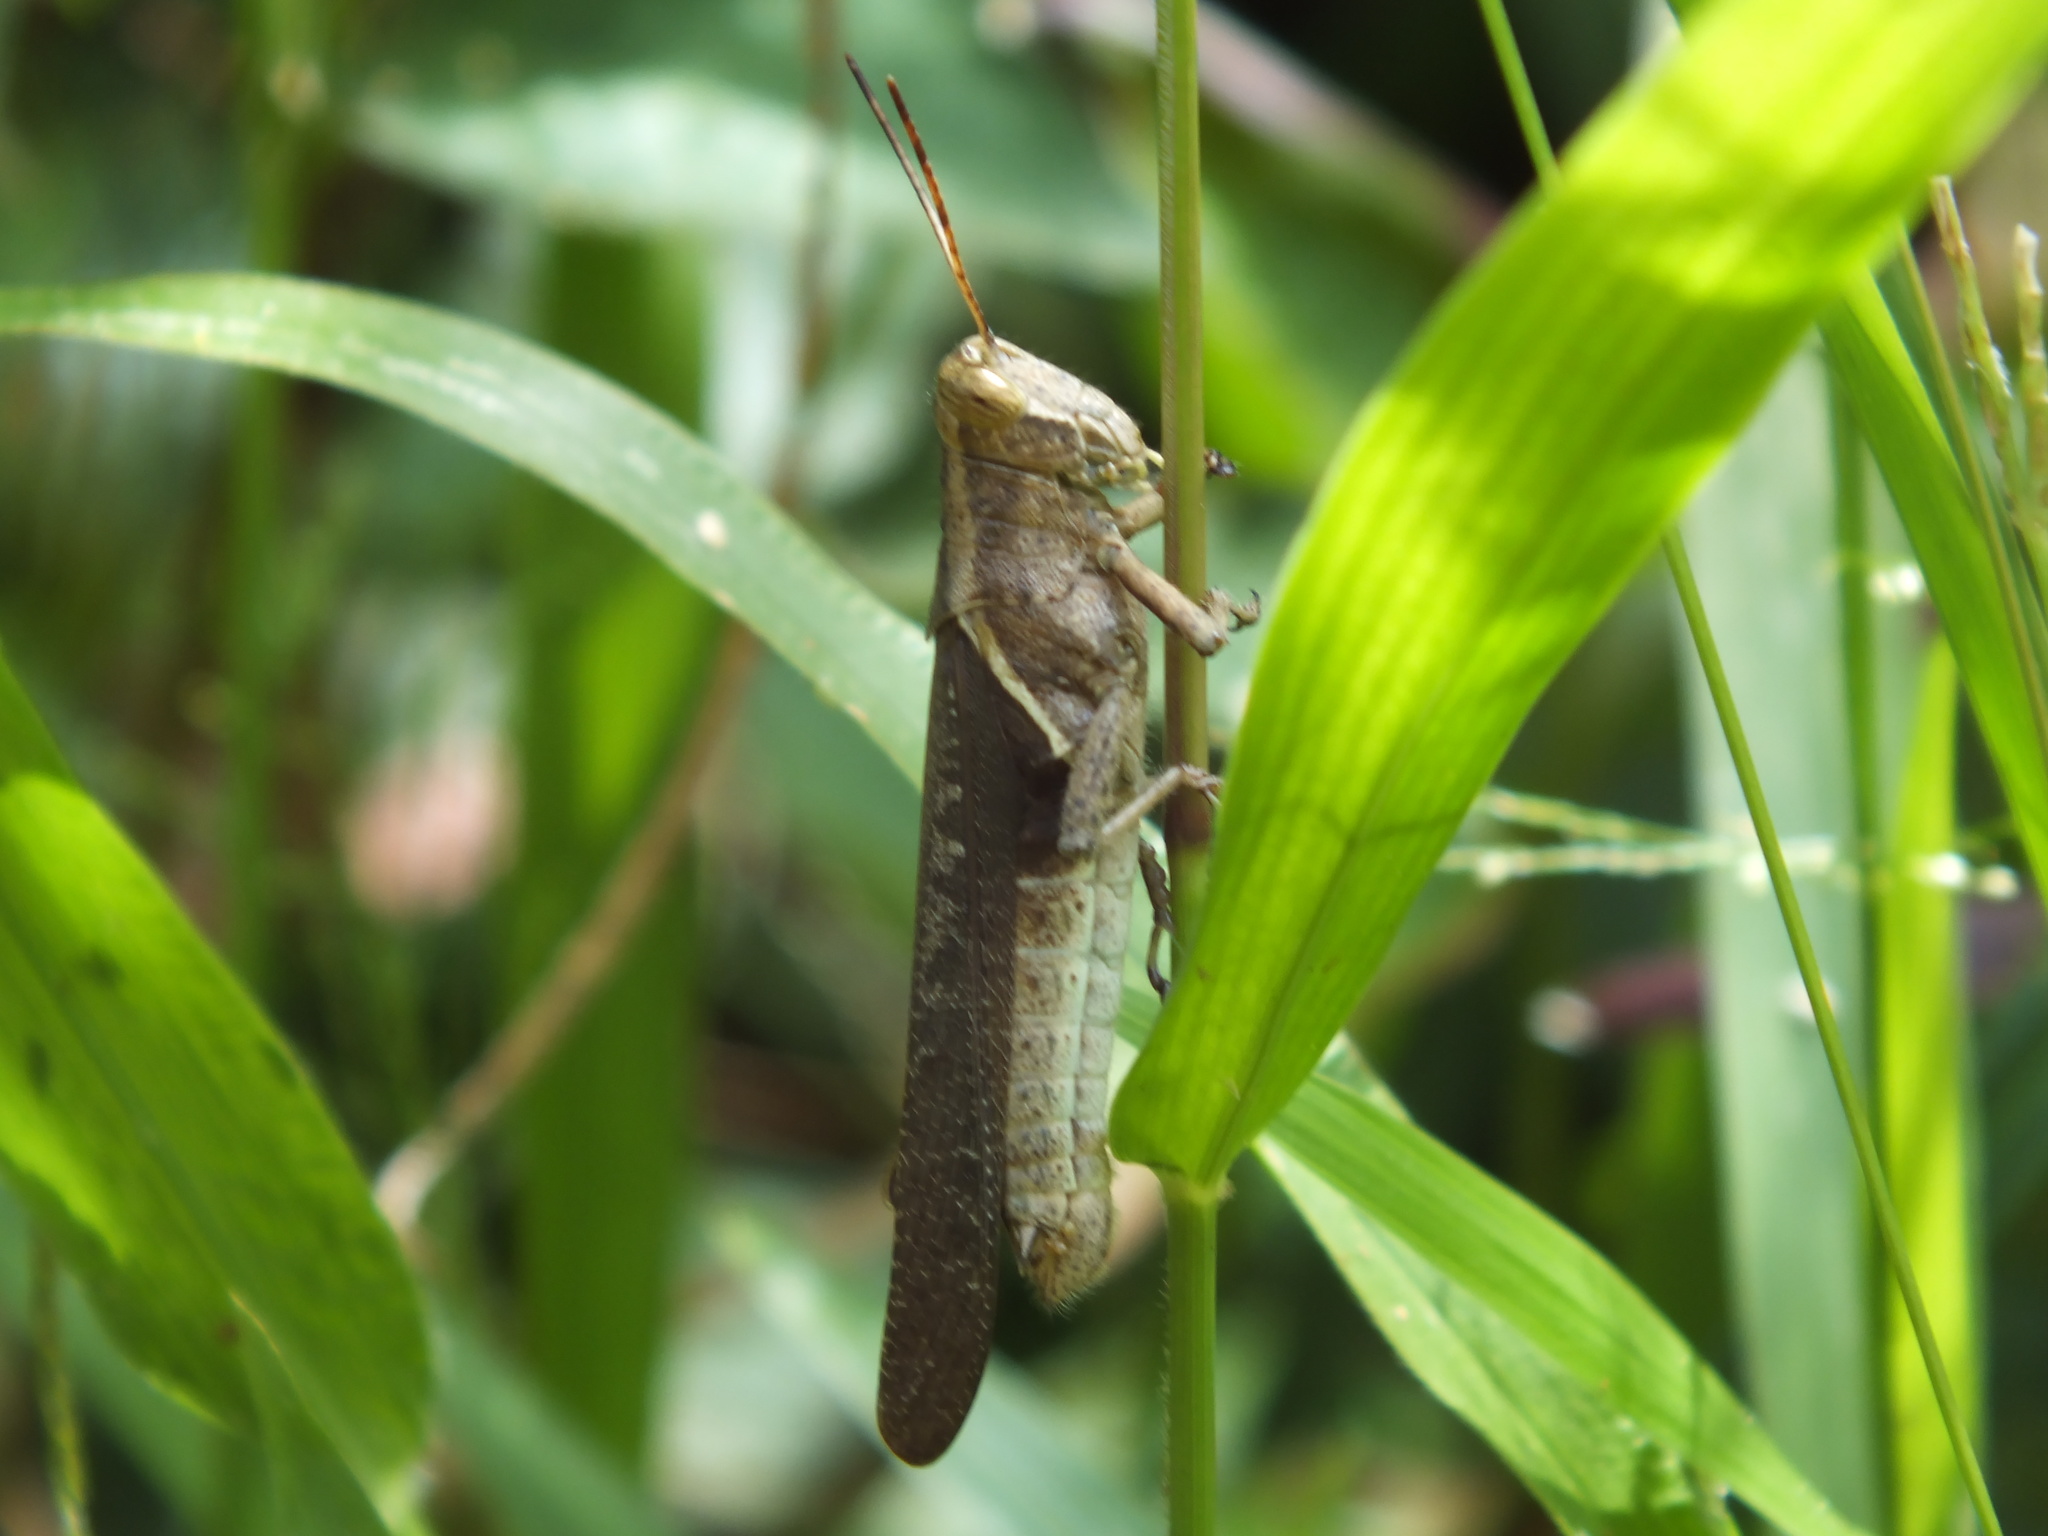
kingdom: Animalia
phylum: Arthropoda
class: Insecta
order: Orthoptera
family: Acrididae
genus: Abracris
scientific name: Abracris flavolineata
